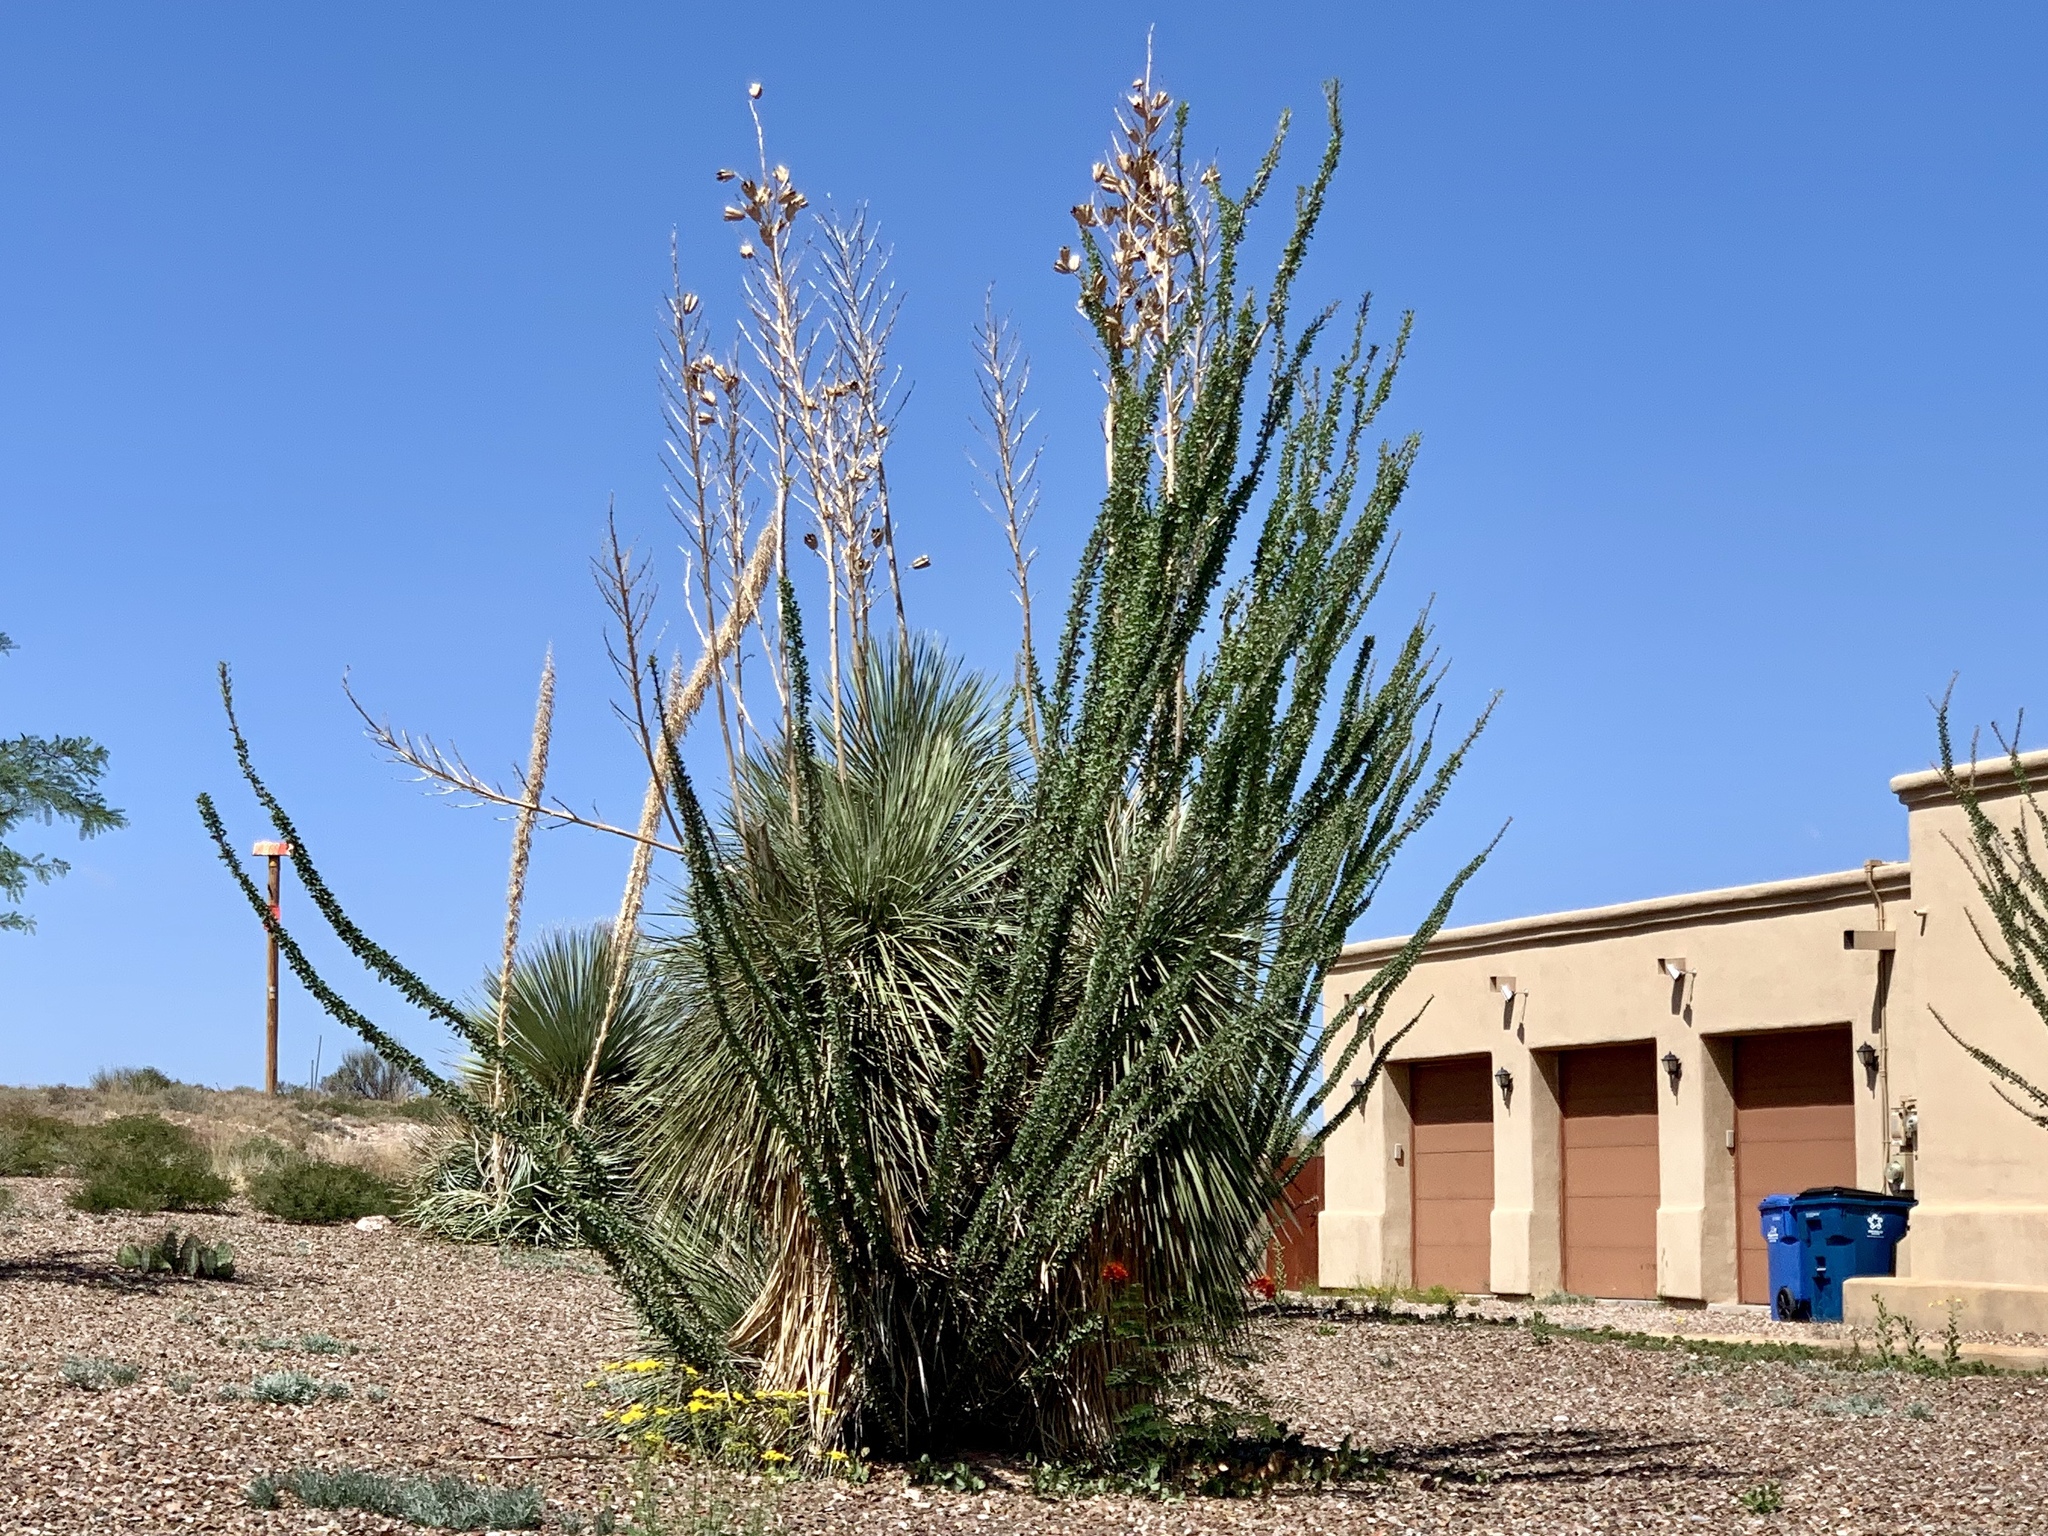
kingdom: Plantae
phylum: Tracheophyta
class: Magnoliopsida
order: Ericales
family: Fouquieriaceae
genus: Fouquieria
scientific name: Fouquieria splendens
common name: Vine-cactus
